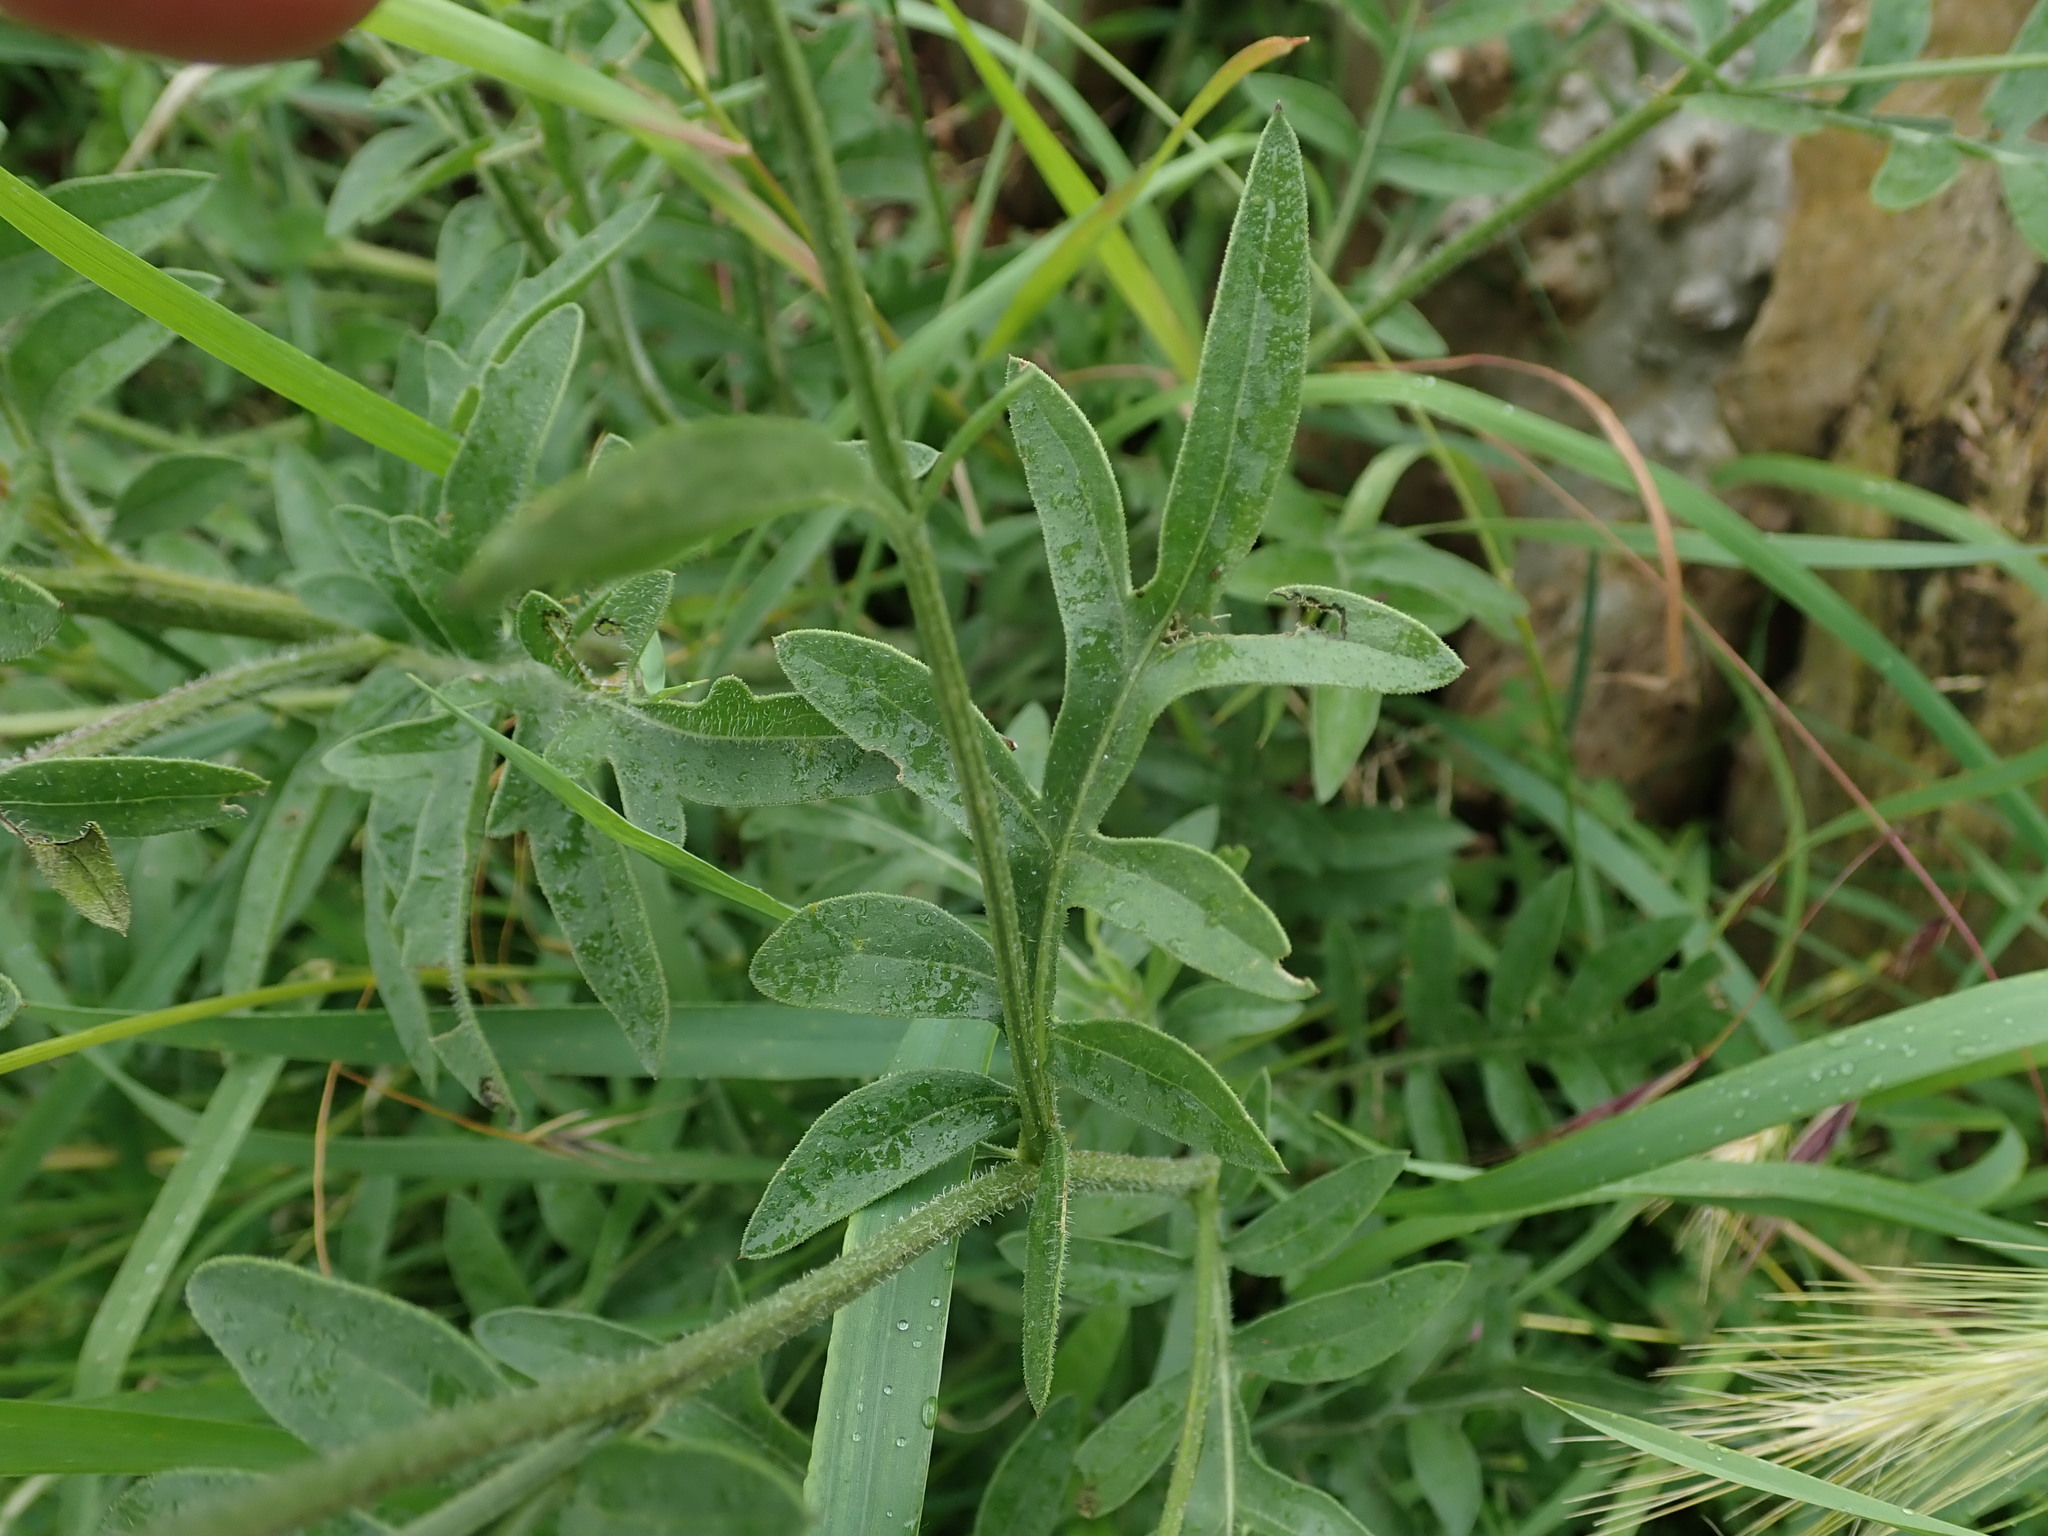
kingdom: Plantae
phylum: Tracheophyta
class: Magnoliopsida
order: Asterales
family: Asteraceae
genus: Centaurea
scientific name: Centaurea scabiosa
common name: Greater knapweed
